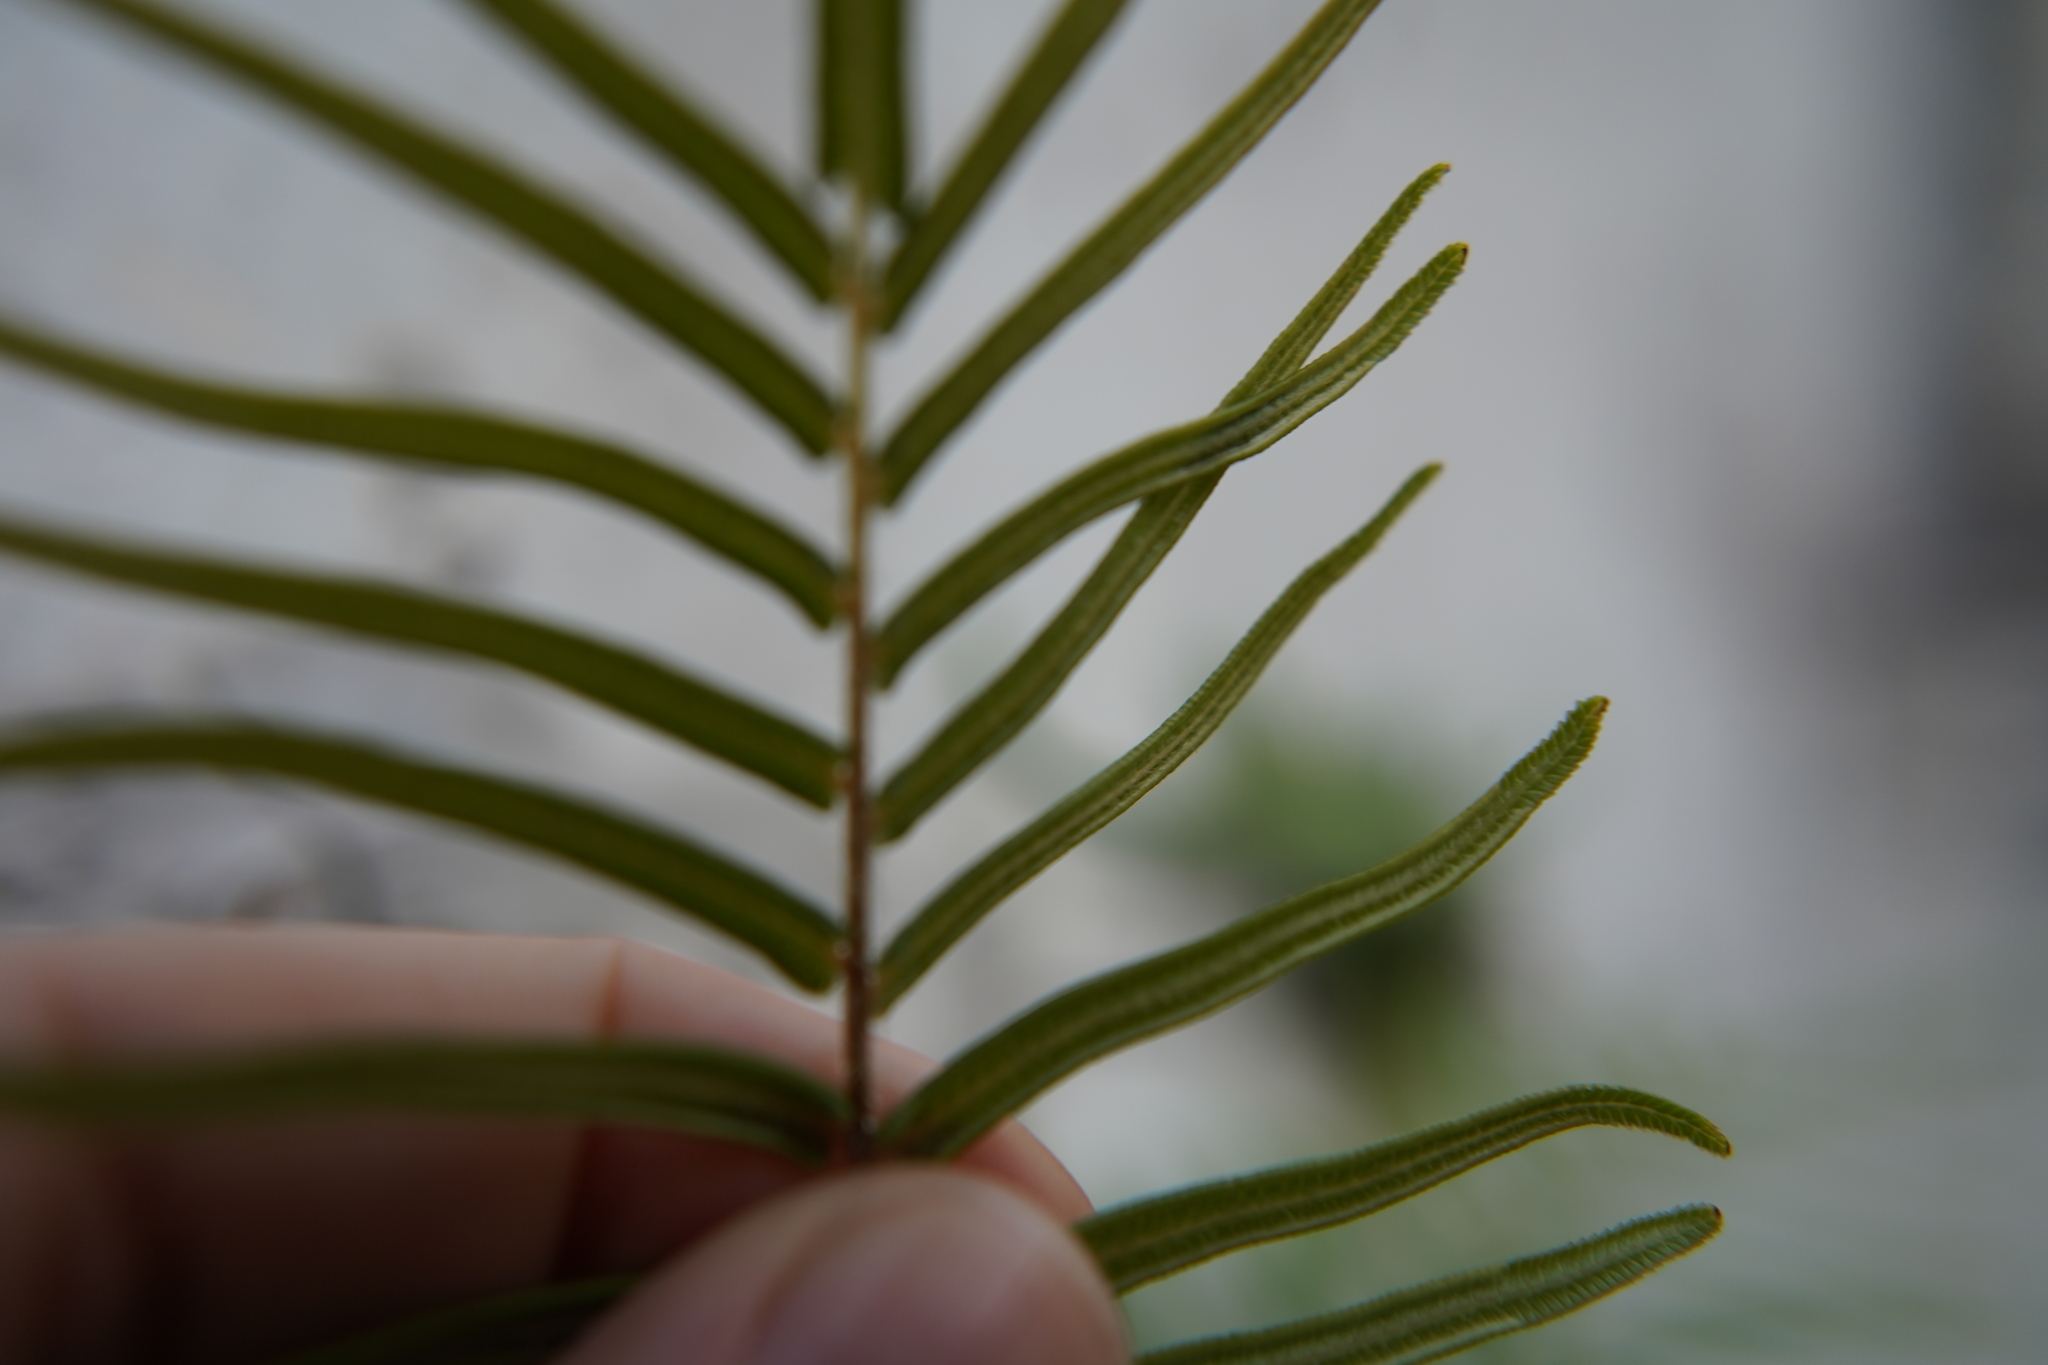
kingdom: Plantae
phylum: Tracheophyta
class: Polypodiopsida
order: Polypodiales
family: Pteridaceae
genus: Pteris
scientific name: Pteris vittata
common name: Ladder brake
